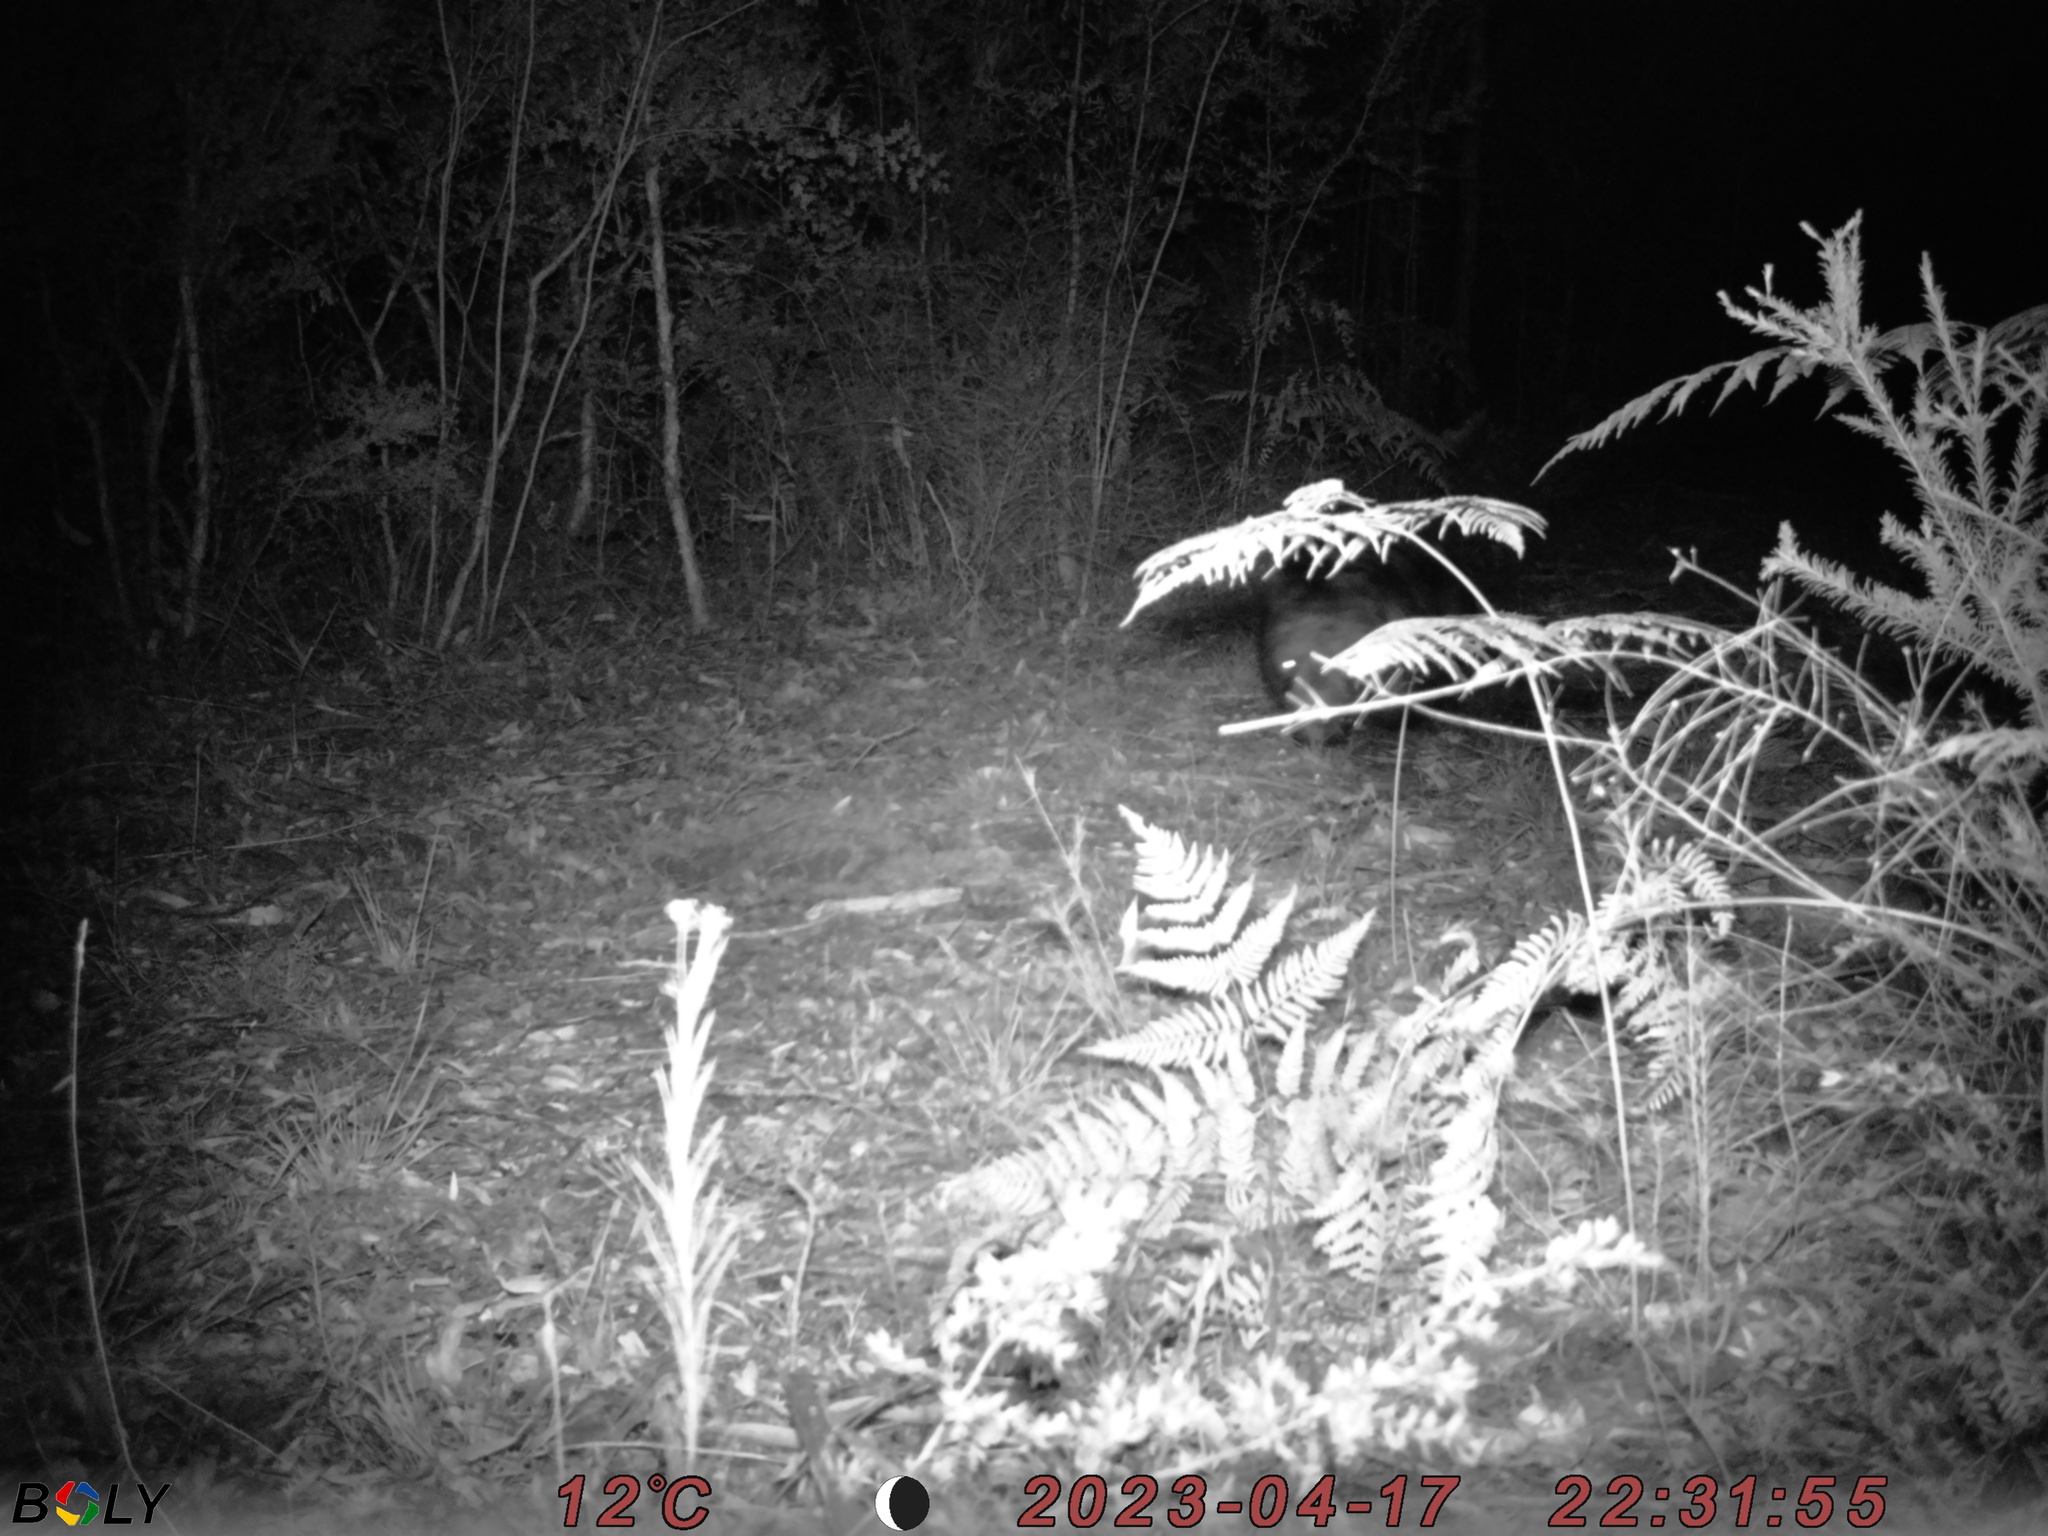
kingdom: Animalia
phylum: Chordata
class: Mammalia
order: Diprotodontia
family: Vombatidae
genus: Vombatus
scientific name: Vombatus ursinus
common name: Common wombat
